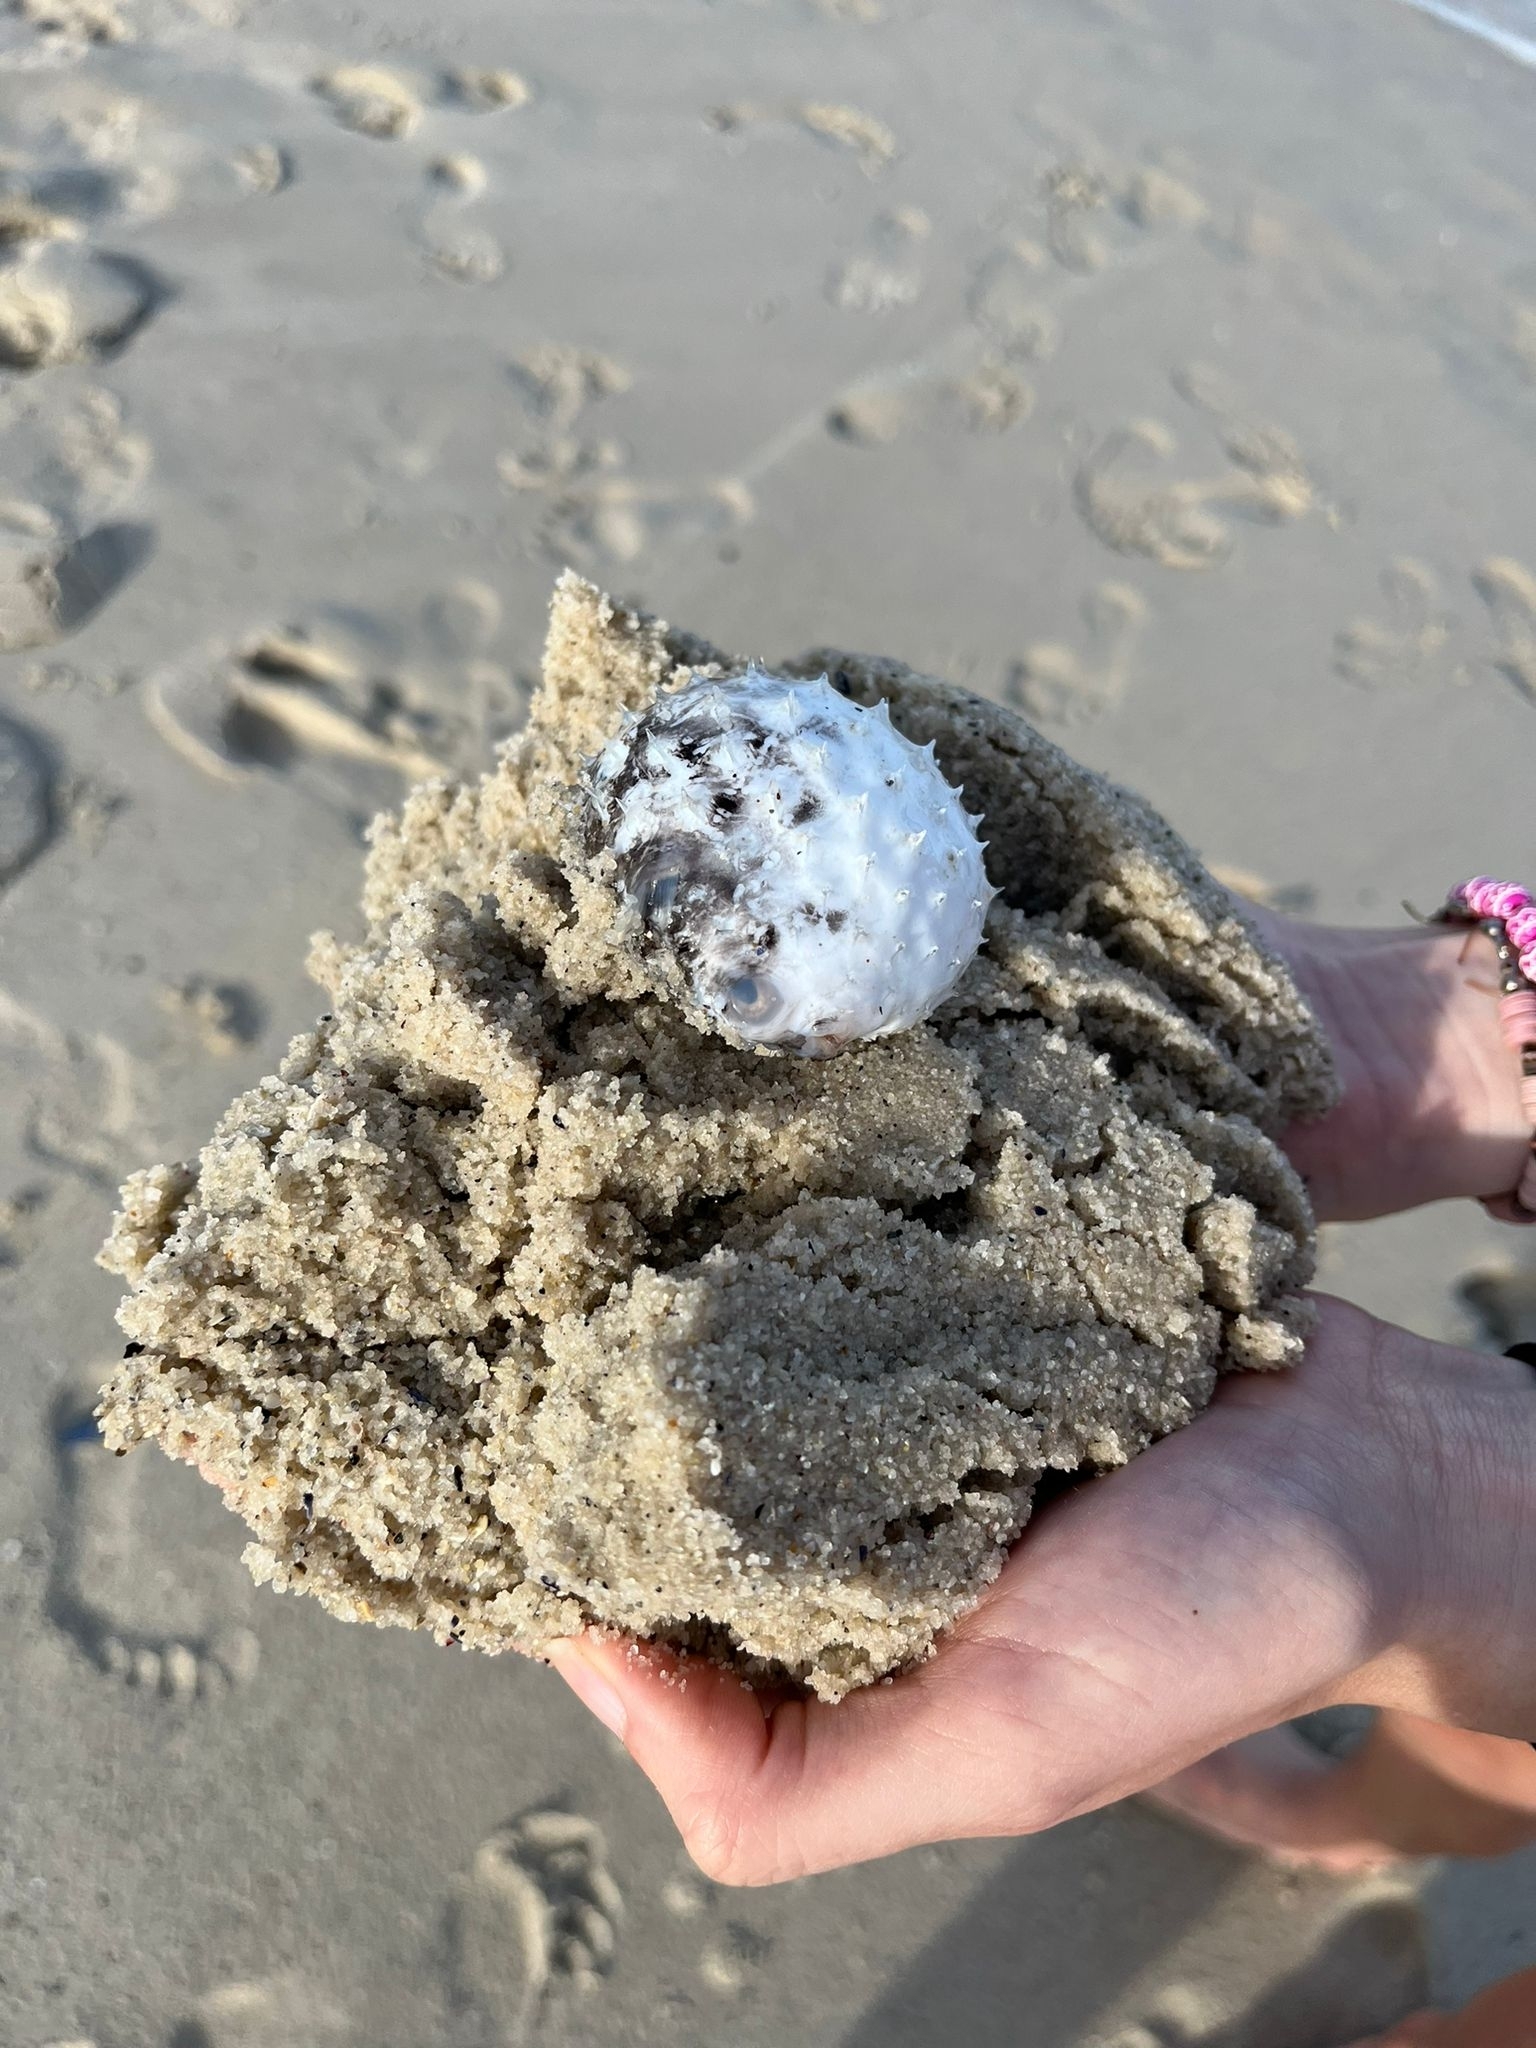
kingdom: Animalia
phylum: Chordata
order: Tetraodontiformes
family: Diodontidae
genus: Diodon
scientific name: Diodon holocanthus
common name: Balloonfish
